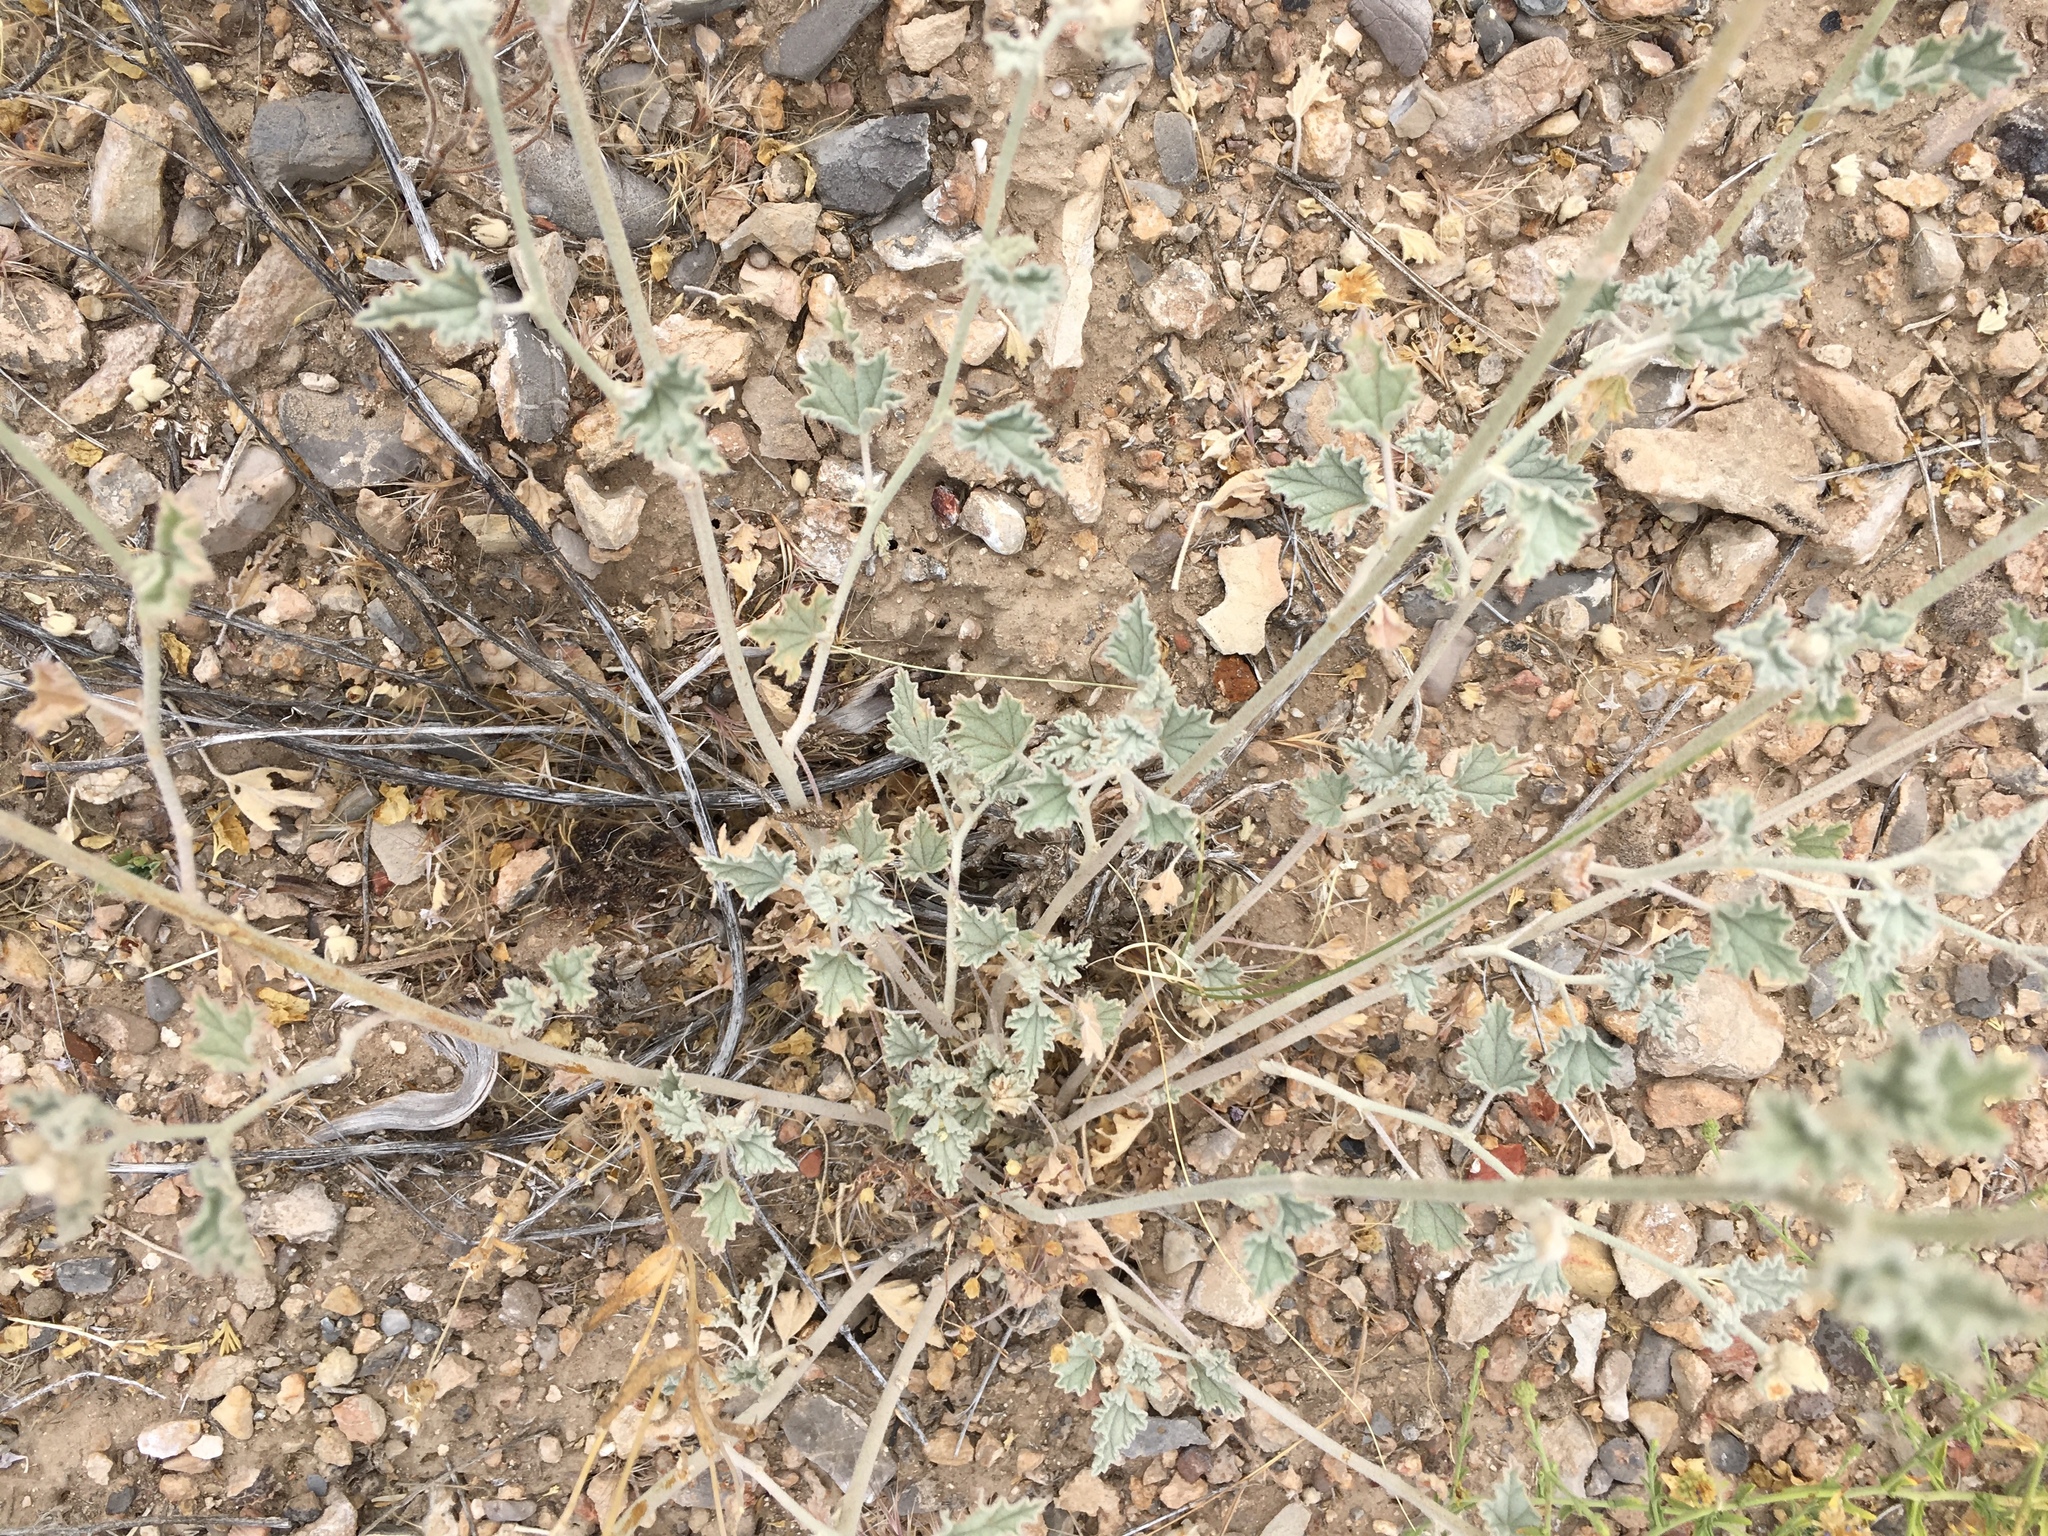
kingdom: Plantae
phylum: Tracheophyta
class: Magnoliopsida
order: Malvales
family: Malvaceae
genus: Sphaeralcea
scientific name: Sphaeralcea ambigua
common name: Apricot globe-mallow
